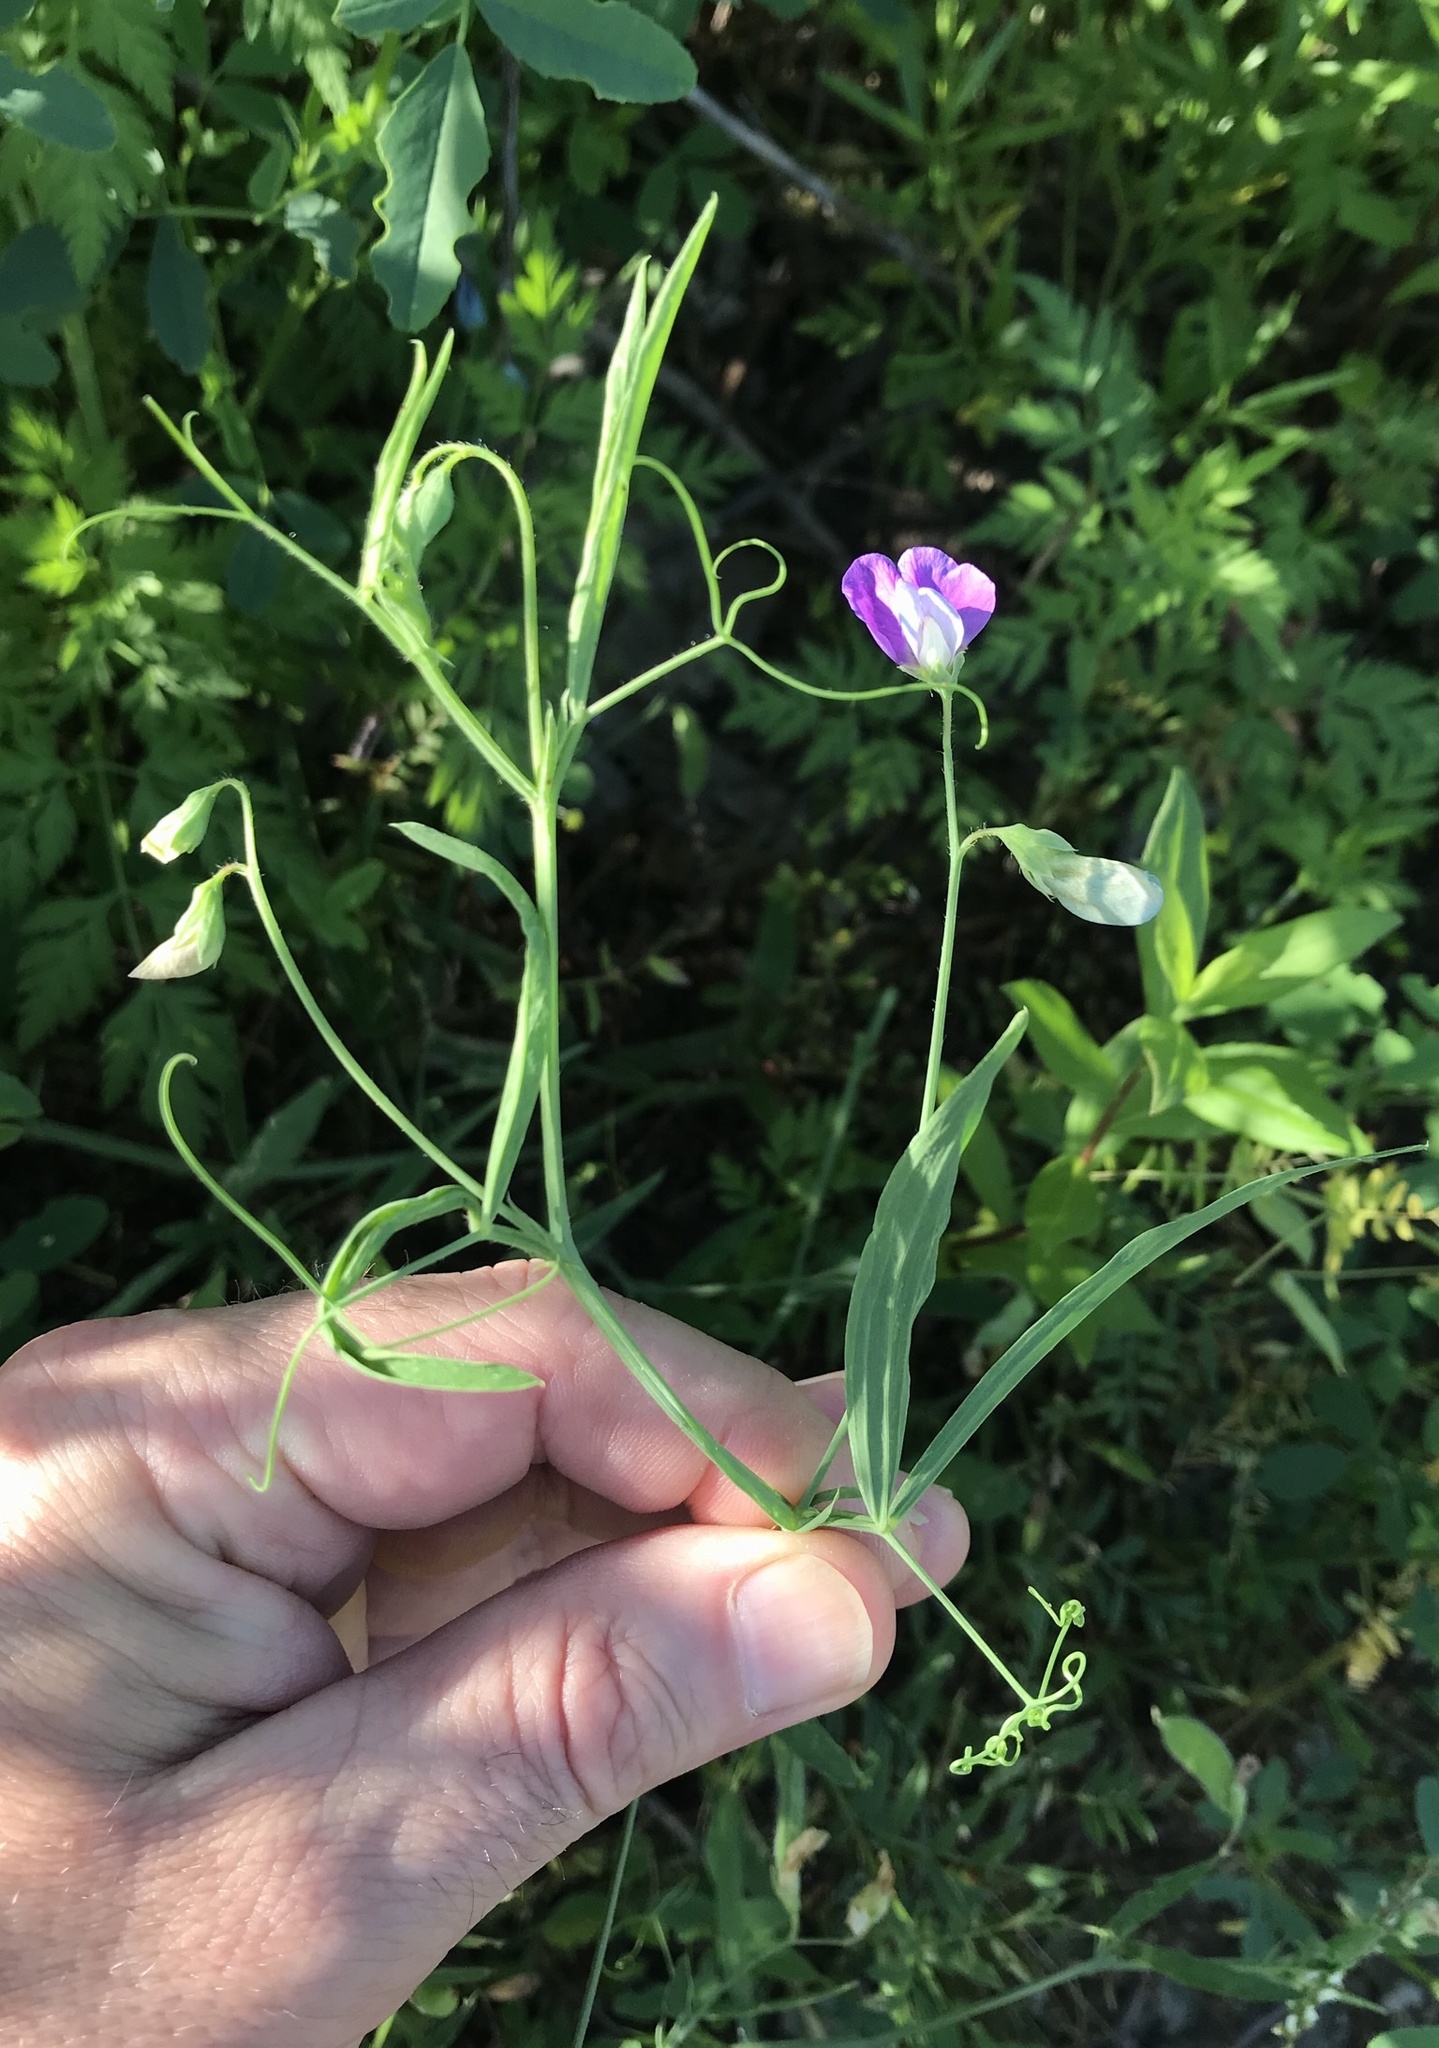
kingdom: Plantae
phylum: Tracheophyta
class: Magnoliopsida
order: Fabales
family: Fabaceae
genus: Lathyrus
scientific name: Lathyrus hirsutus
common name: Hairy vetchling
